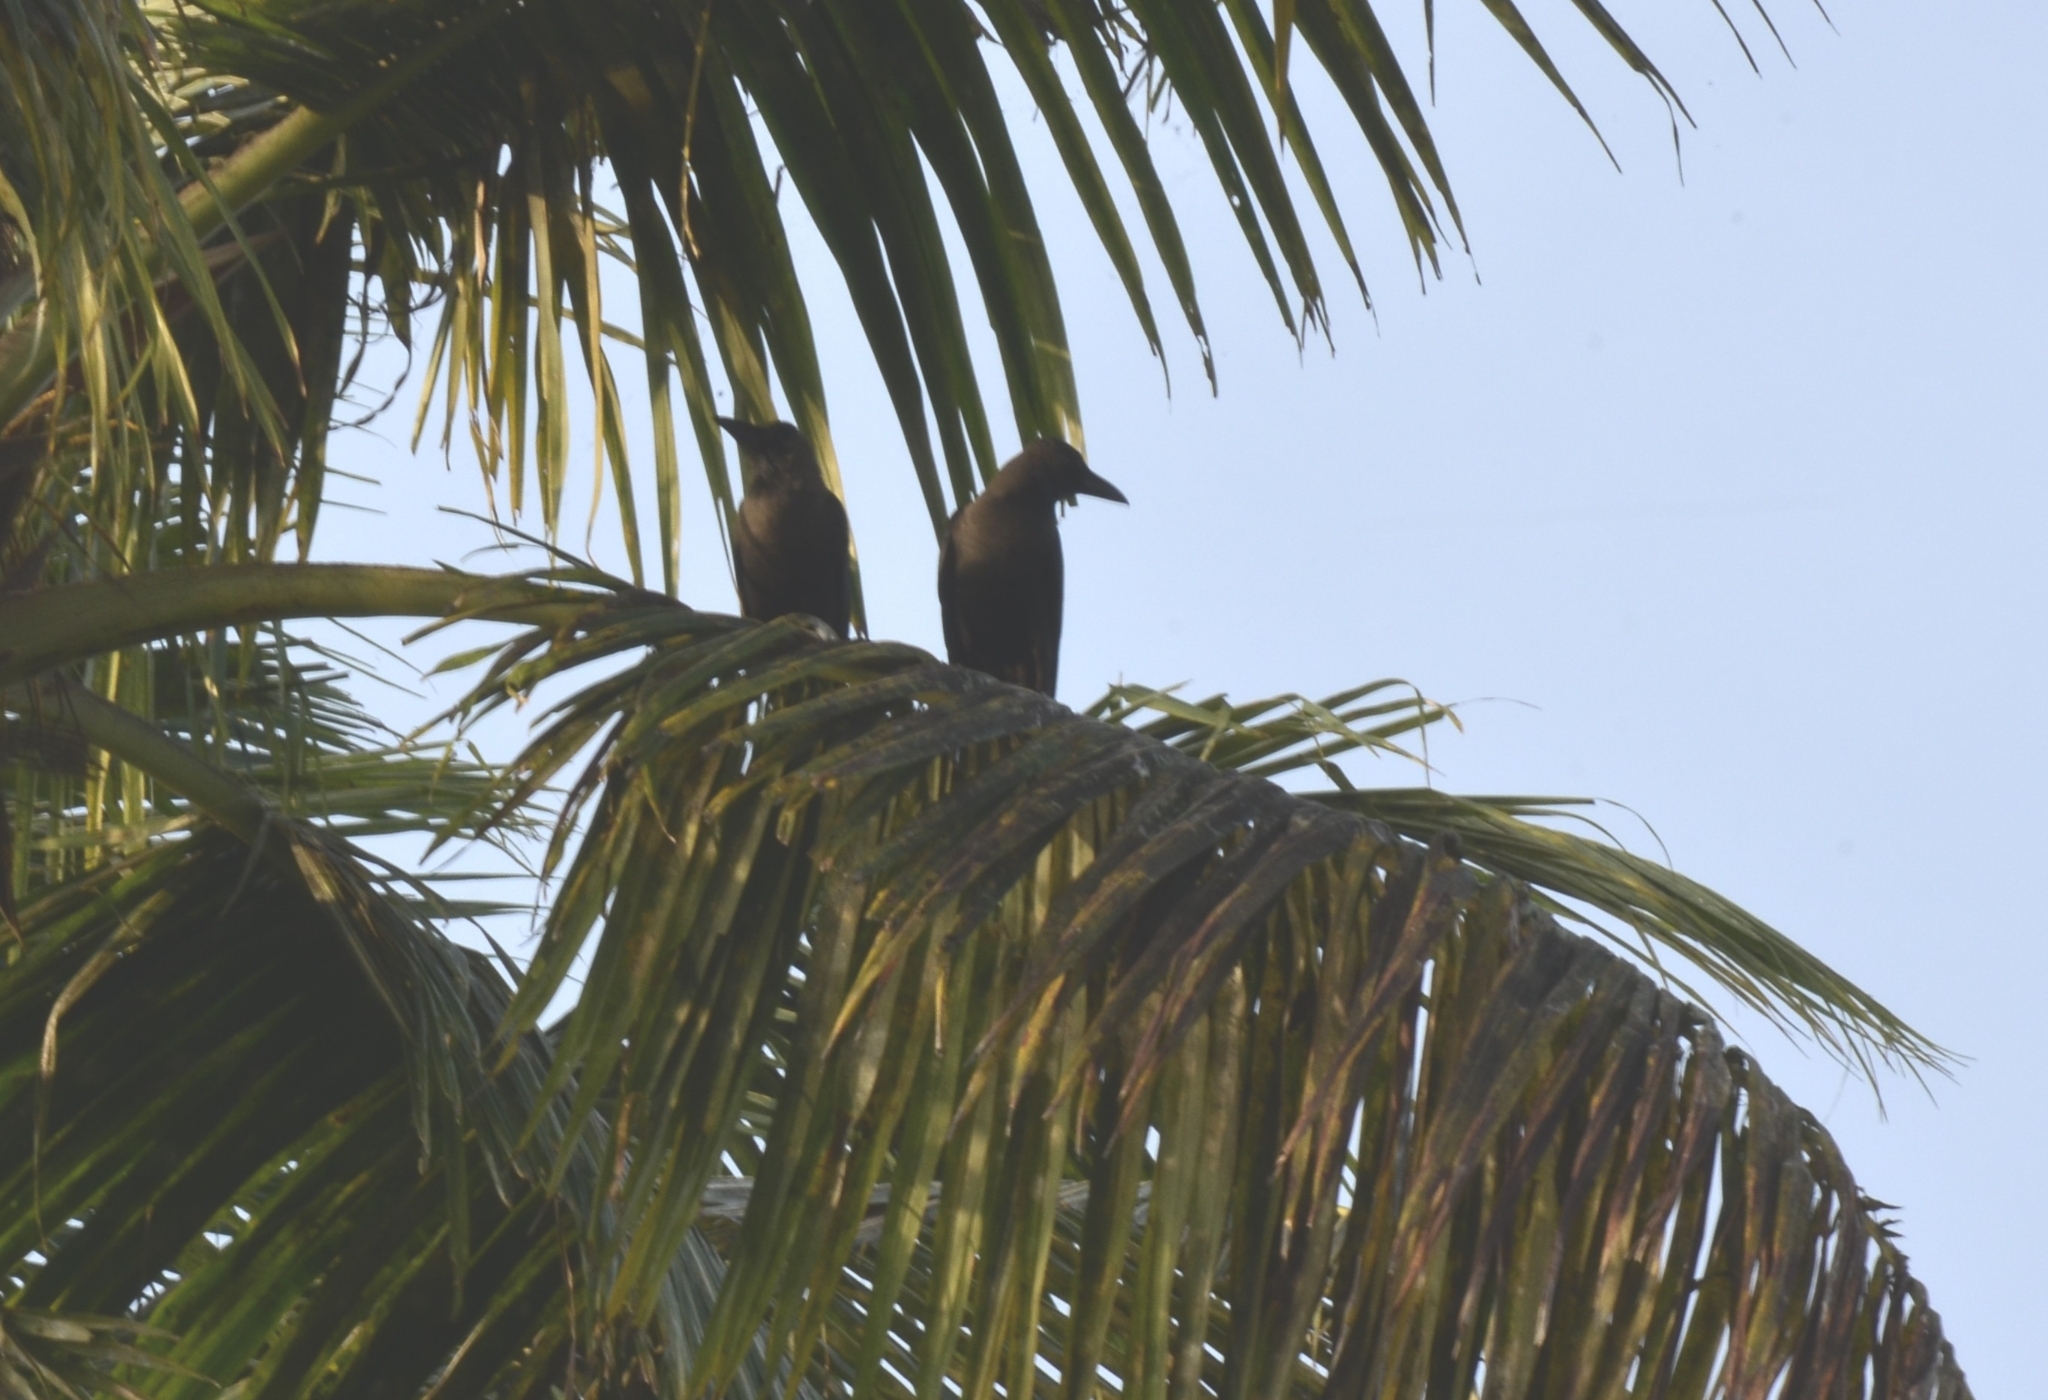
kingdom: Animalia
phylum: Chordata
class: Aves
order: Passeriformes
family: Corvidae
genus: Corvus
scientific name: Corvus splendens
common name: House crow
